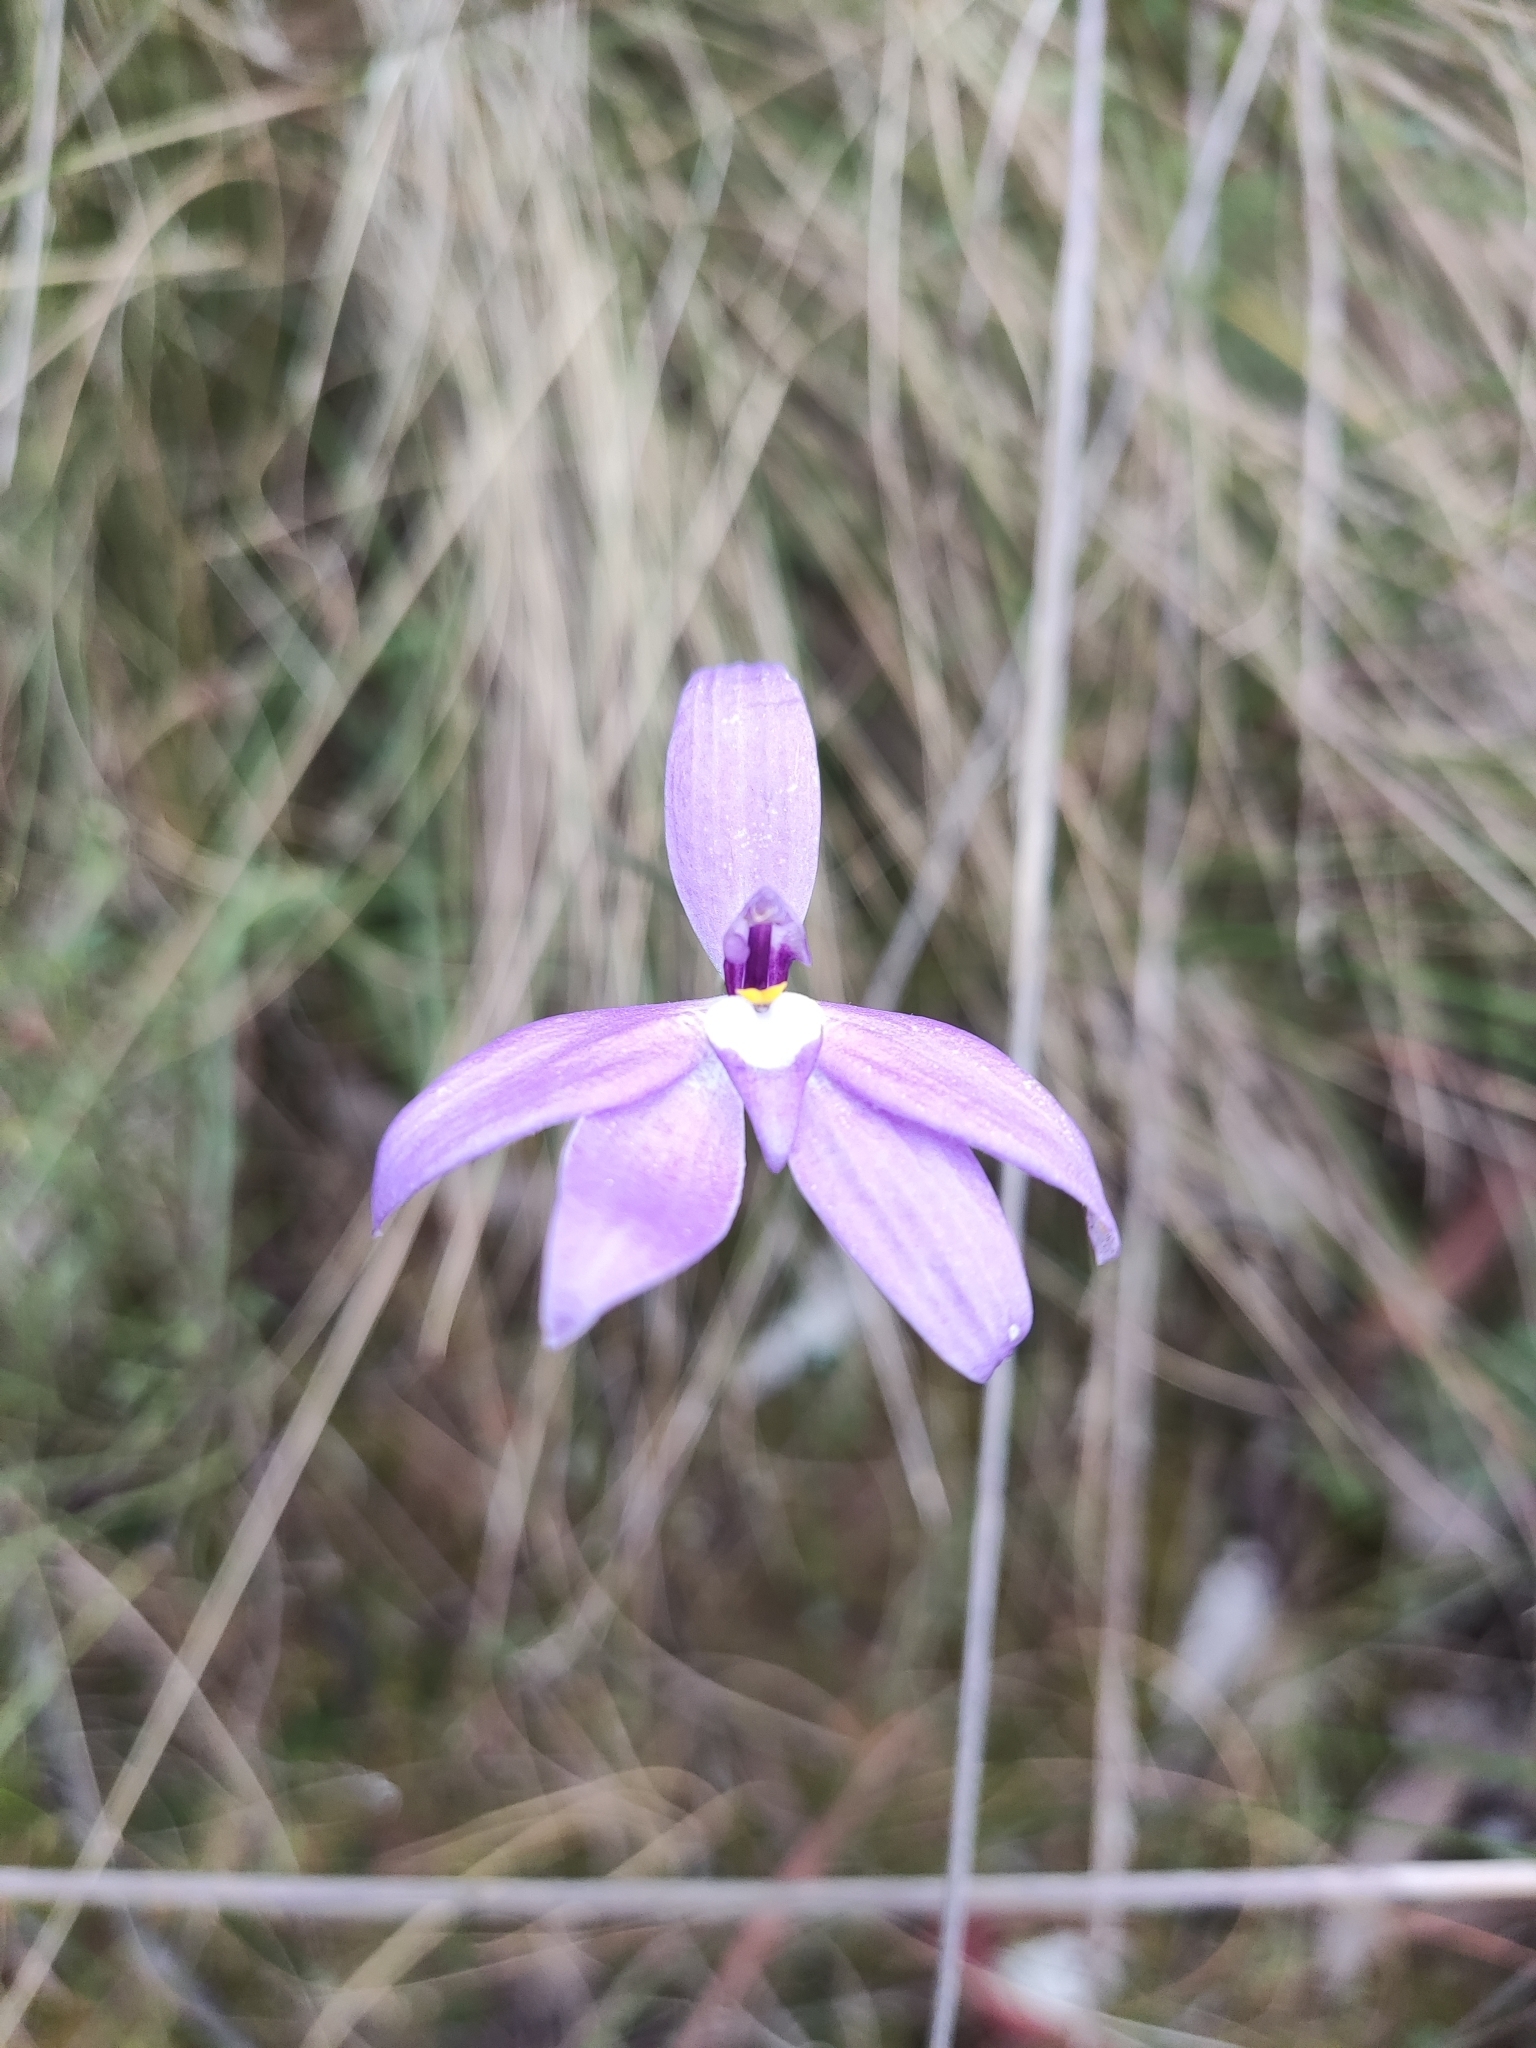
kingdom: Plantae
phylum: Tracheophyta
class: Liliopsida
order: Asparagales
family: Orchidaceae
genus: Caladenia
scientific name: Caladenia major
